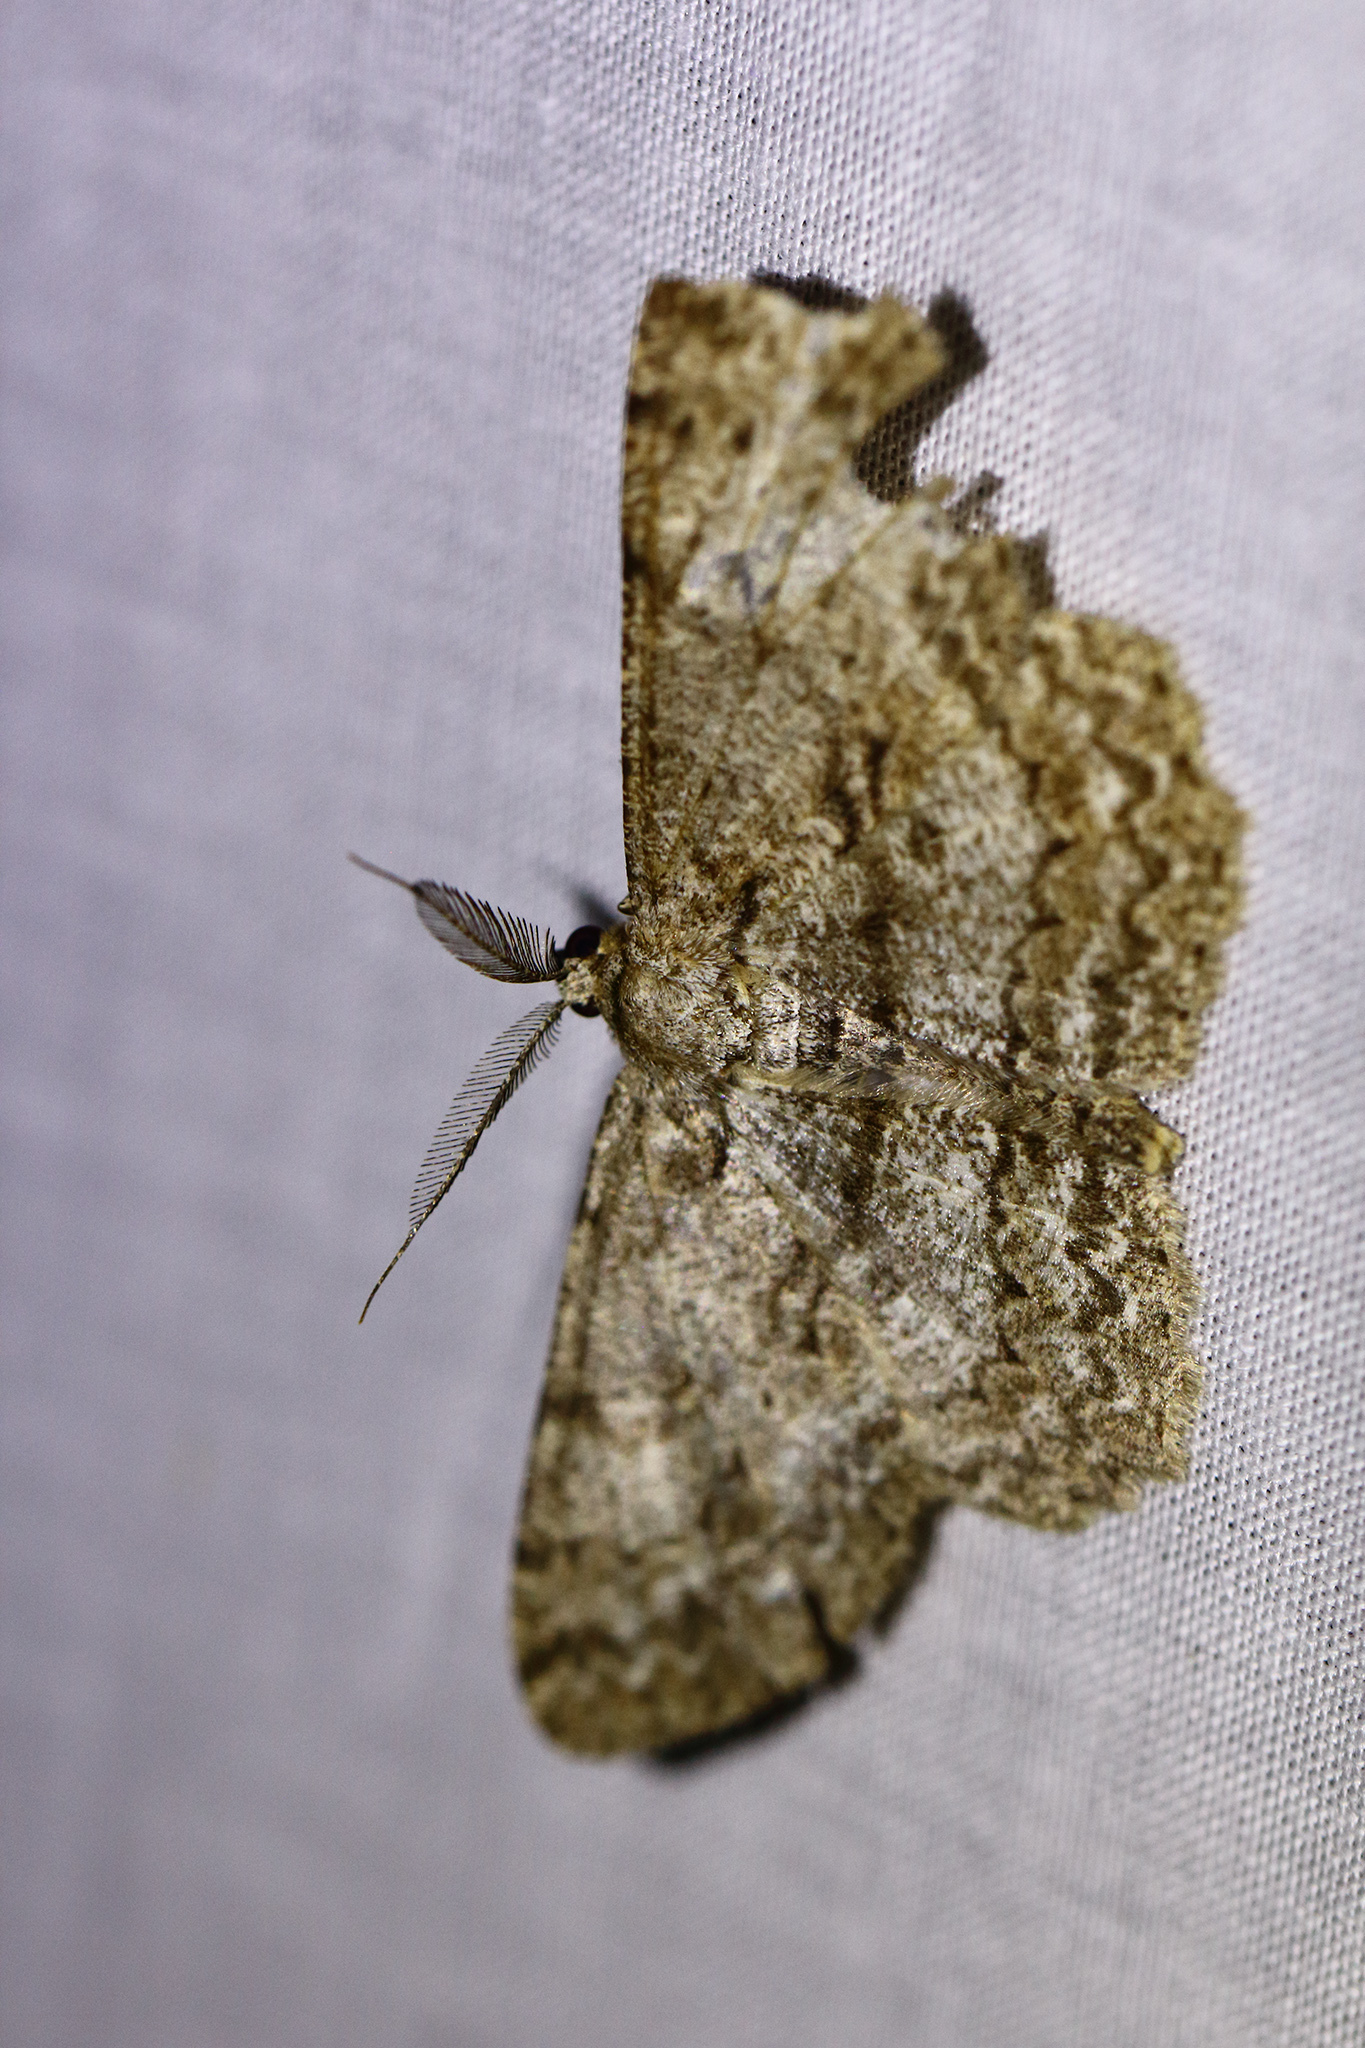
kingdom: Animalia
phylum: Arthropoda
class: Insecta
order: Lepidoptera
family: Geometridae
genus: Hypomecis
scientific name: Hypomecis punctinalis
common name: Pale oak beauty
